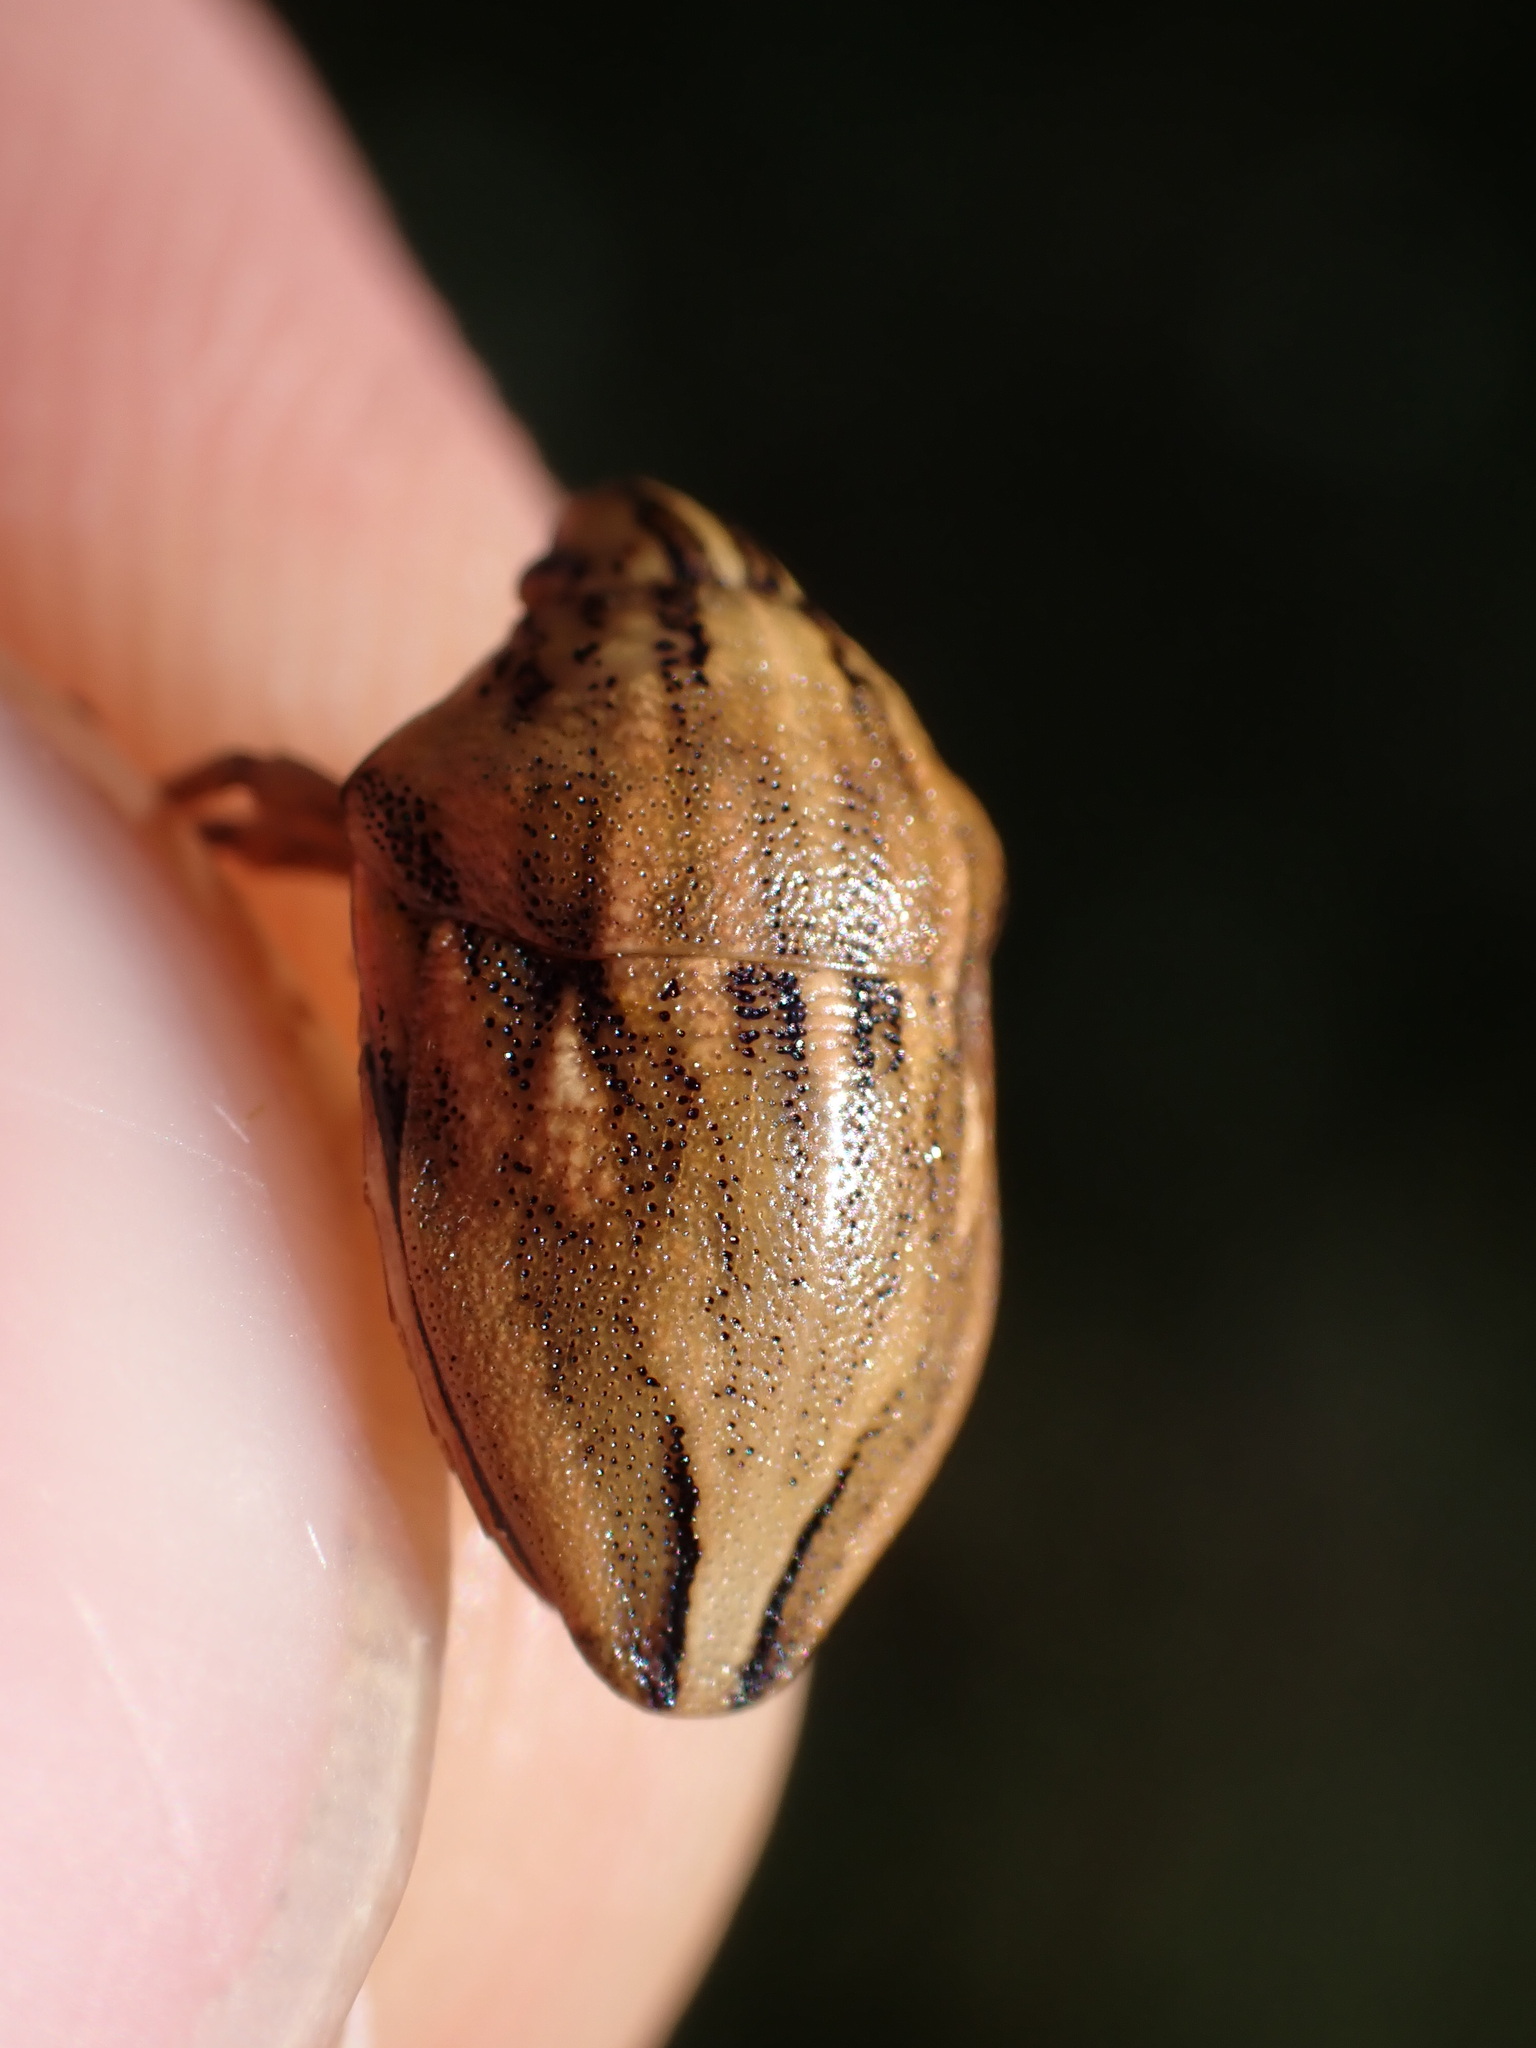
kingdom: Animalia
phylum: Arthropoda
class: Insecta
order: Hemiptera
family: Scutelleridae
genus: Odontotarsus
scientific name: Odontotarsus purpureolineatus
